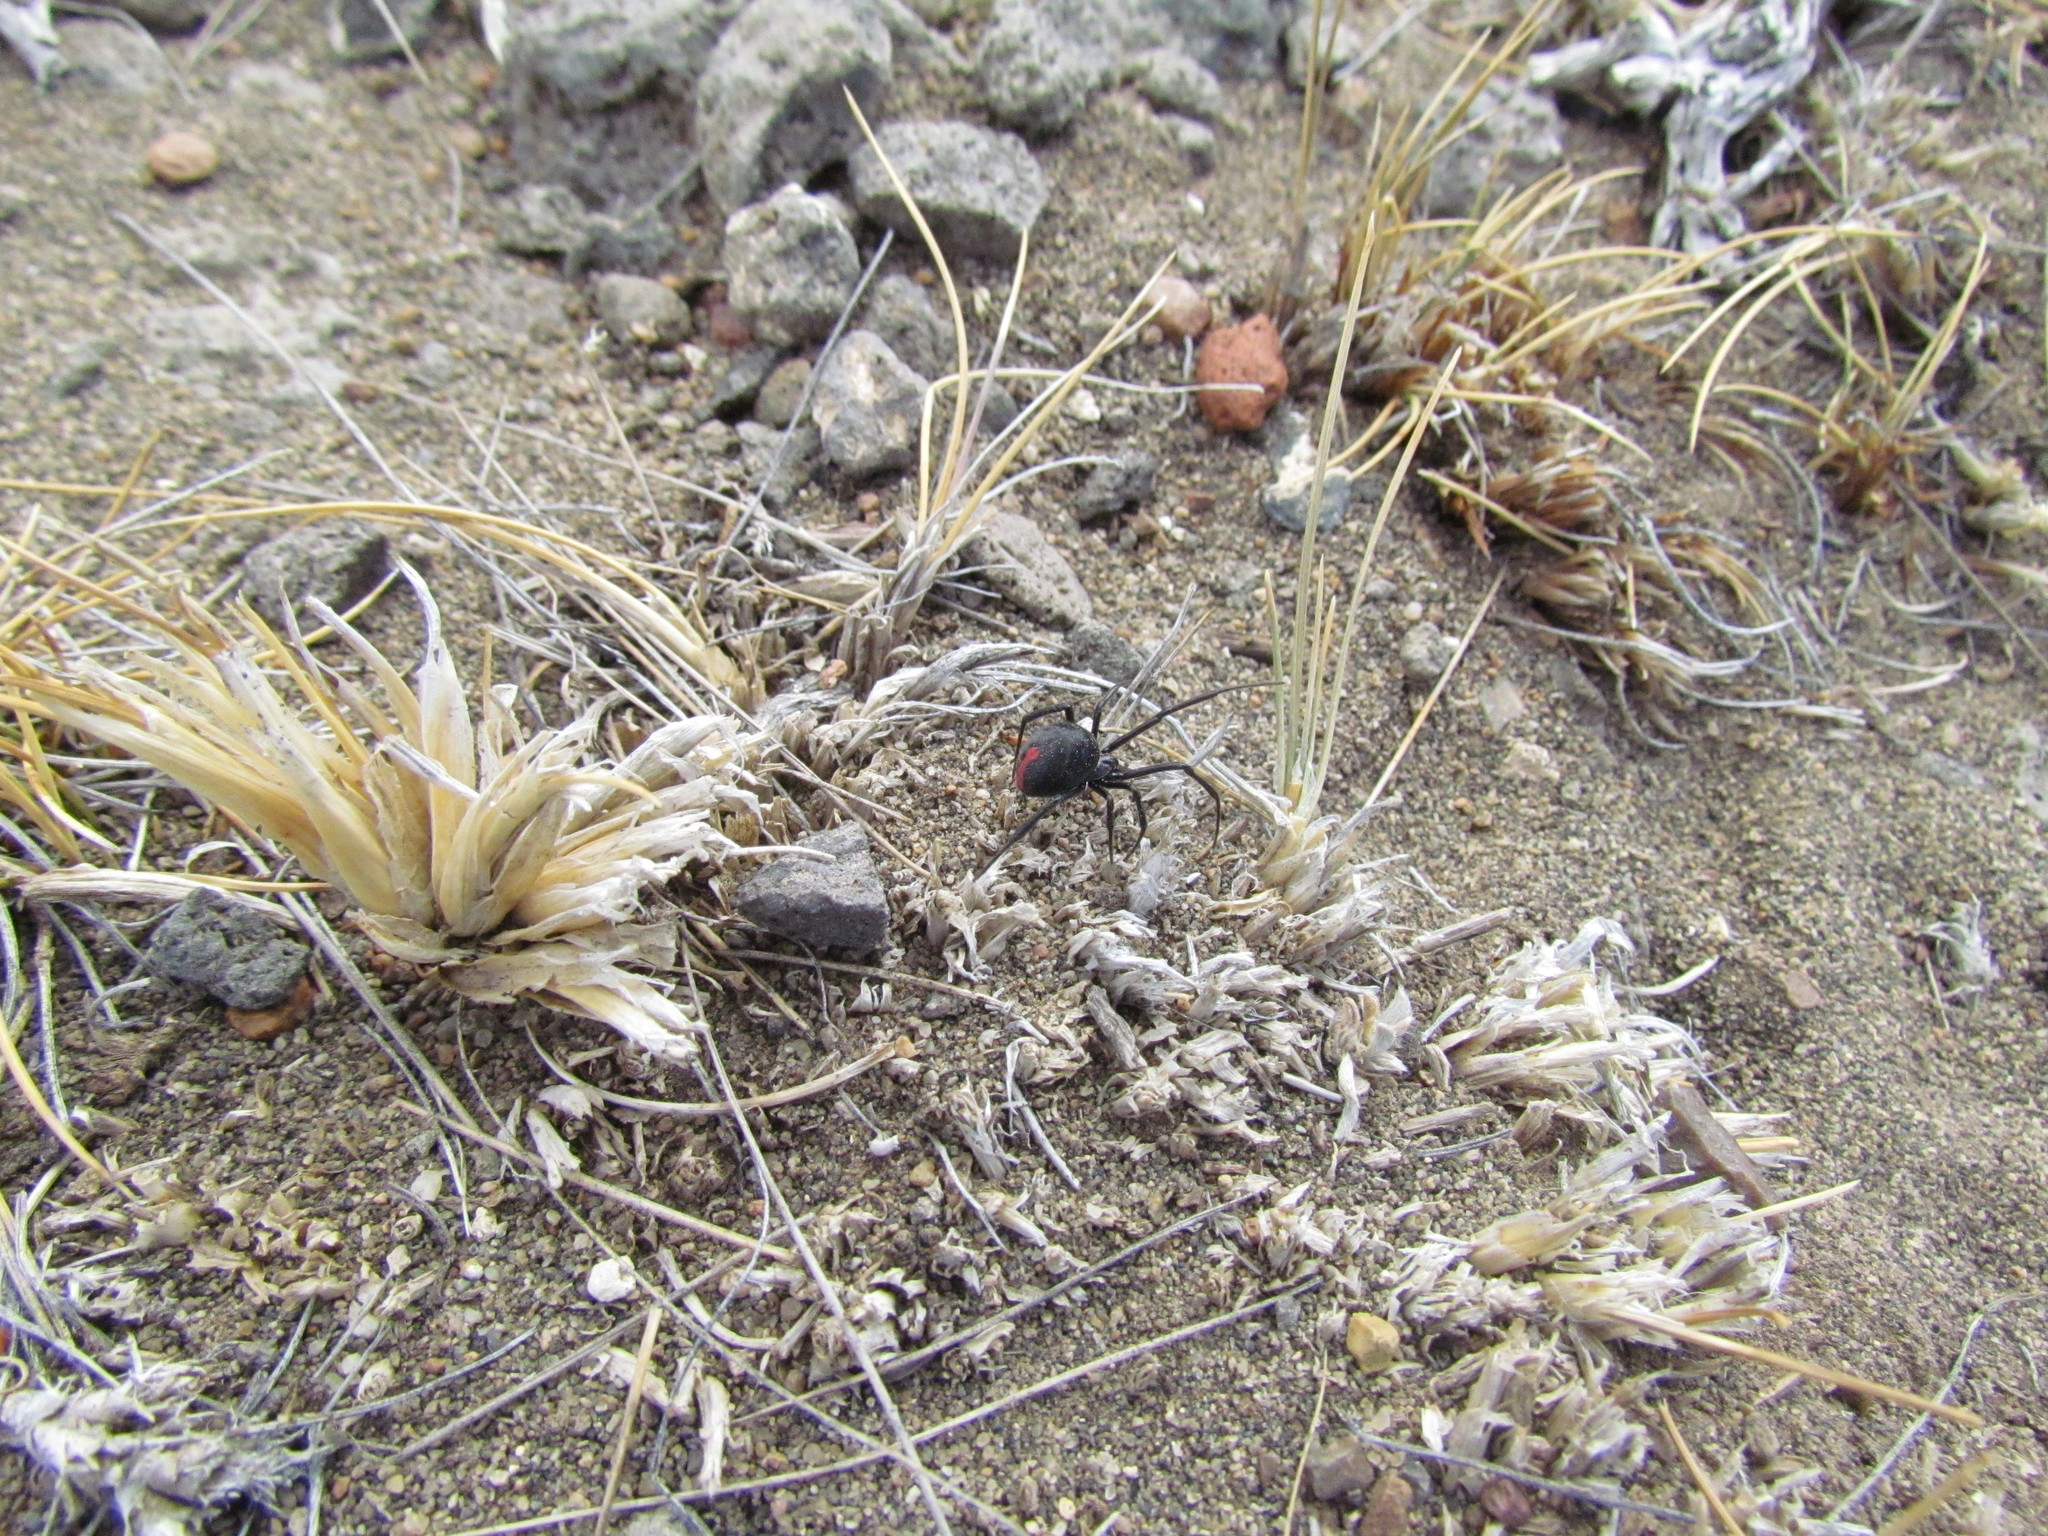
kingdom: Animalia
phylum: Arthropoda
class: Arachnida
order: Araneae
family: Theridiidae
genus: Latrodectus
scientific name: Latrodectus mirabilis
